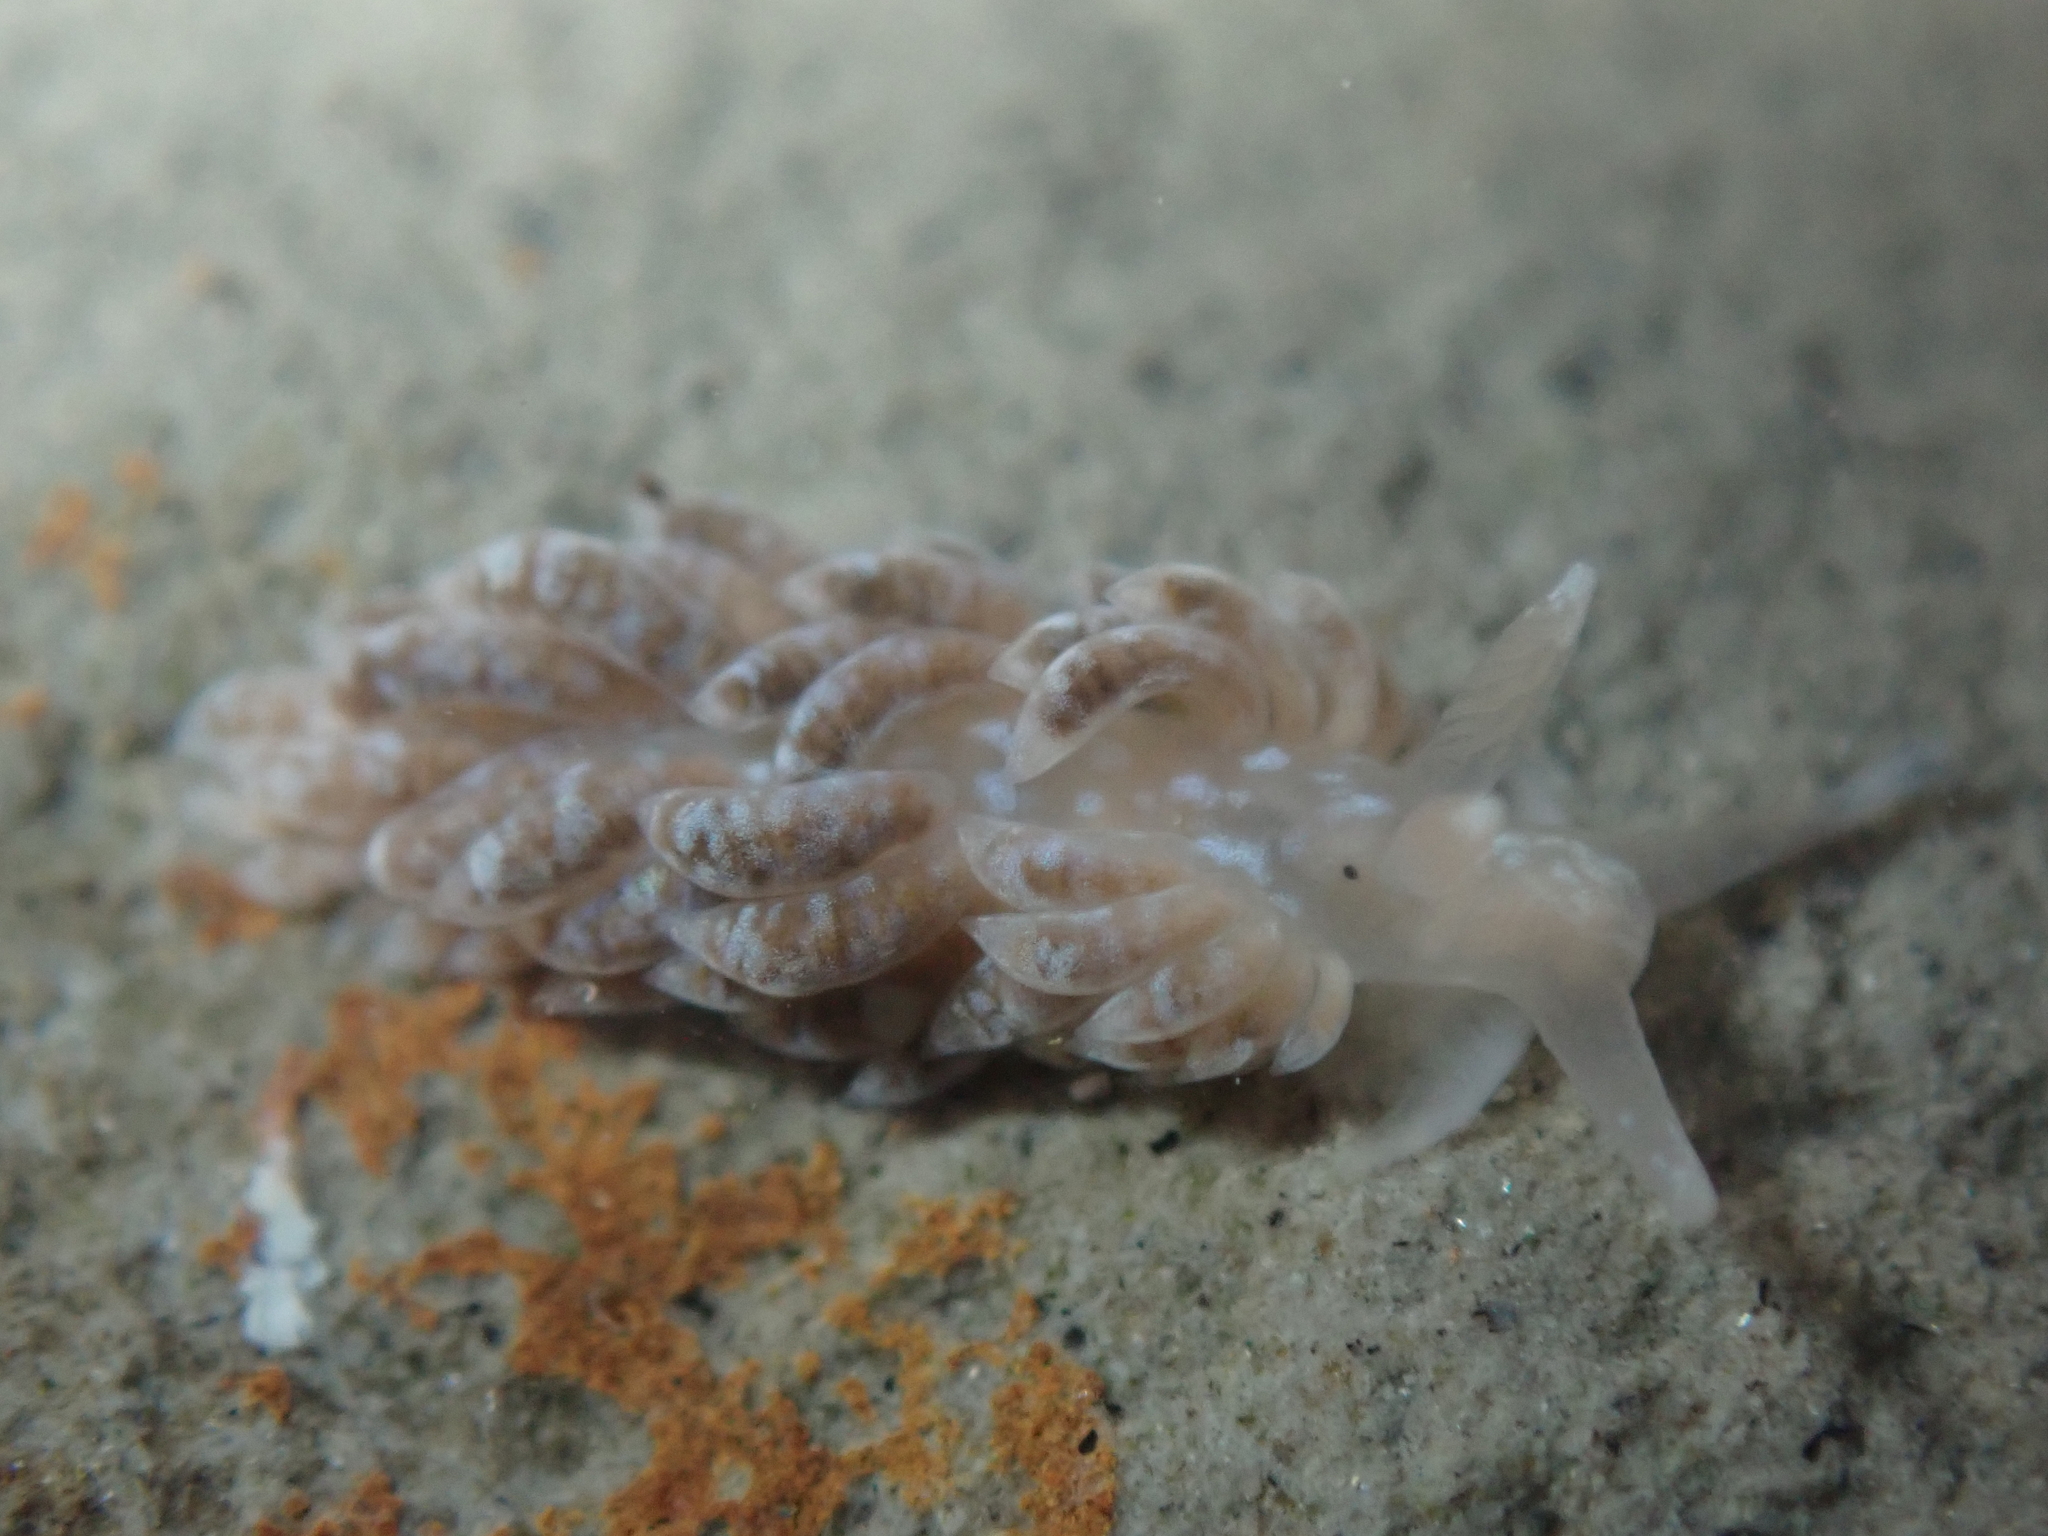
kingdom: Animalia
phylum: Mollusca
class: Gastropoda
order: Nudibranchia
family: Aeolidiidae
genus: Anteaeolidiella
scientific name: Anteaeolidiella
